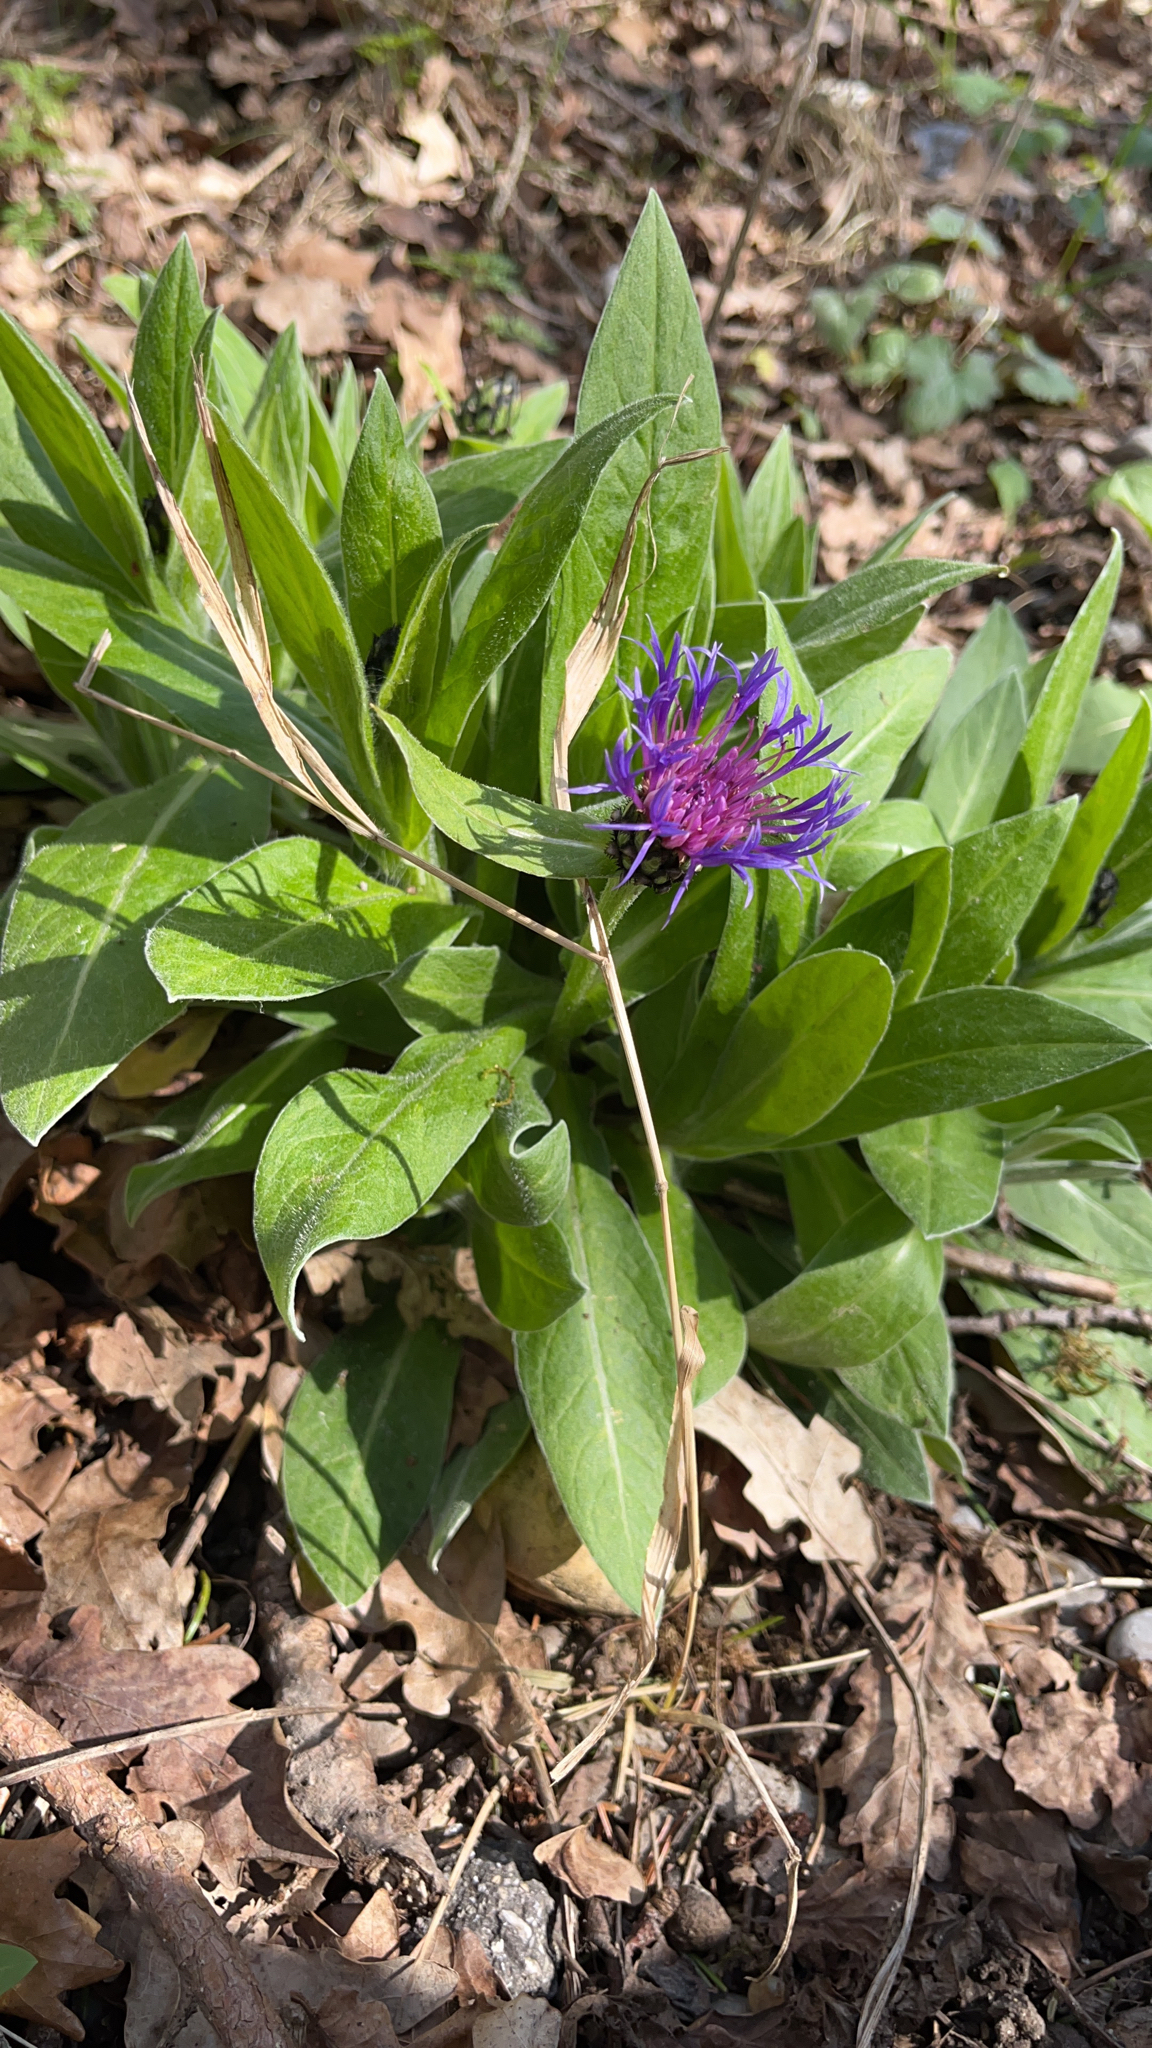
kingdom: Plantae
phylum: Tracheophyta
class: Magnoliopsida
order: Asterales
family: Asteraceae
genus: Centaurea
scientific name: Centaurea montana
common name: Perennial cornflower
